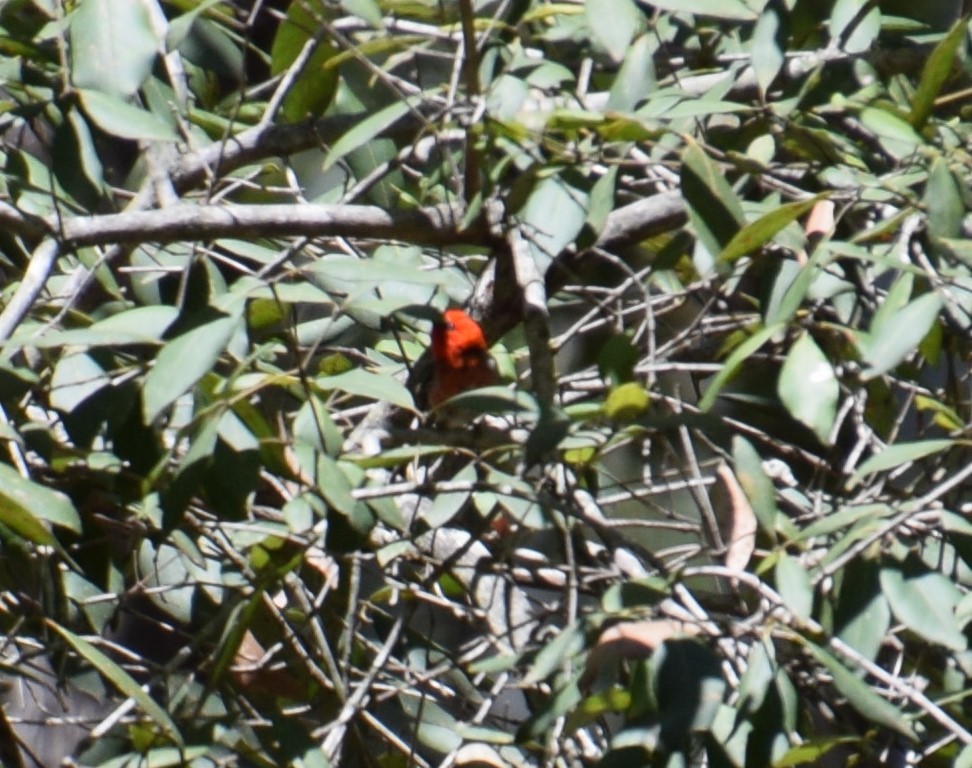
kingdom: Animalia
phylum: Chordata
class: Aves
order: Passeriformes
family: Meliphagidae
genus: Myzomela
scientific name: Myzomela sanguinolenta
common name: Scarlet myzomela
